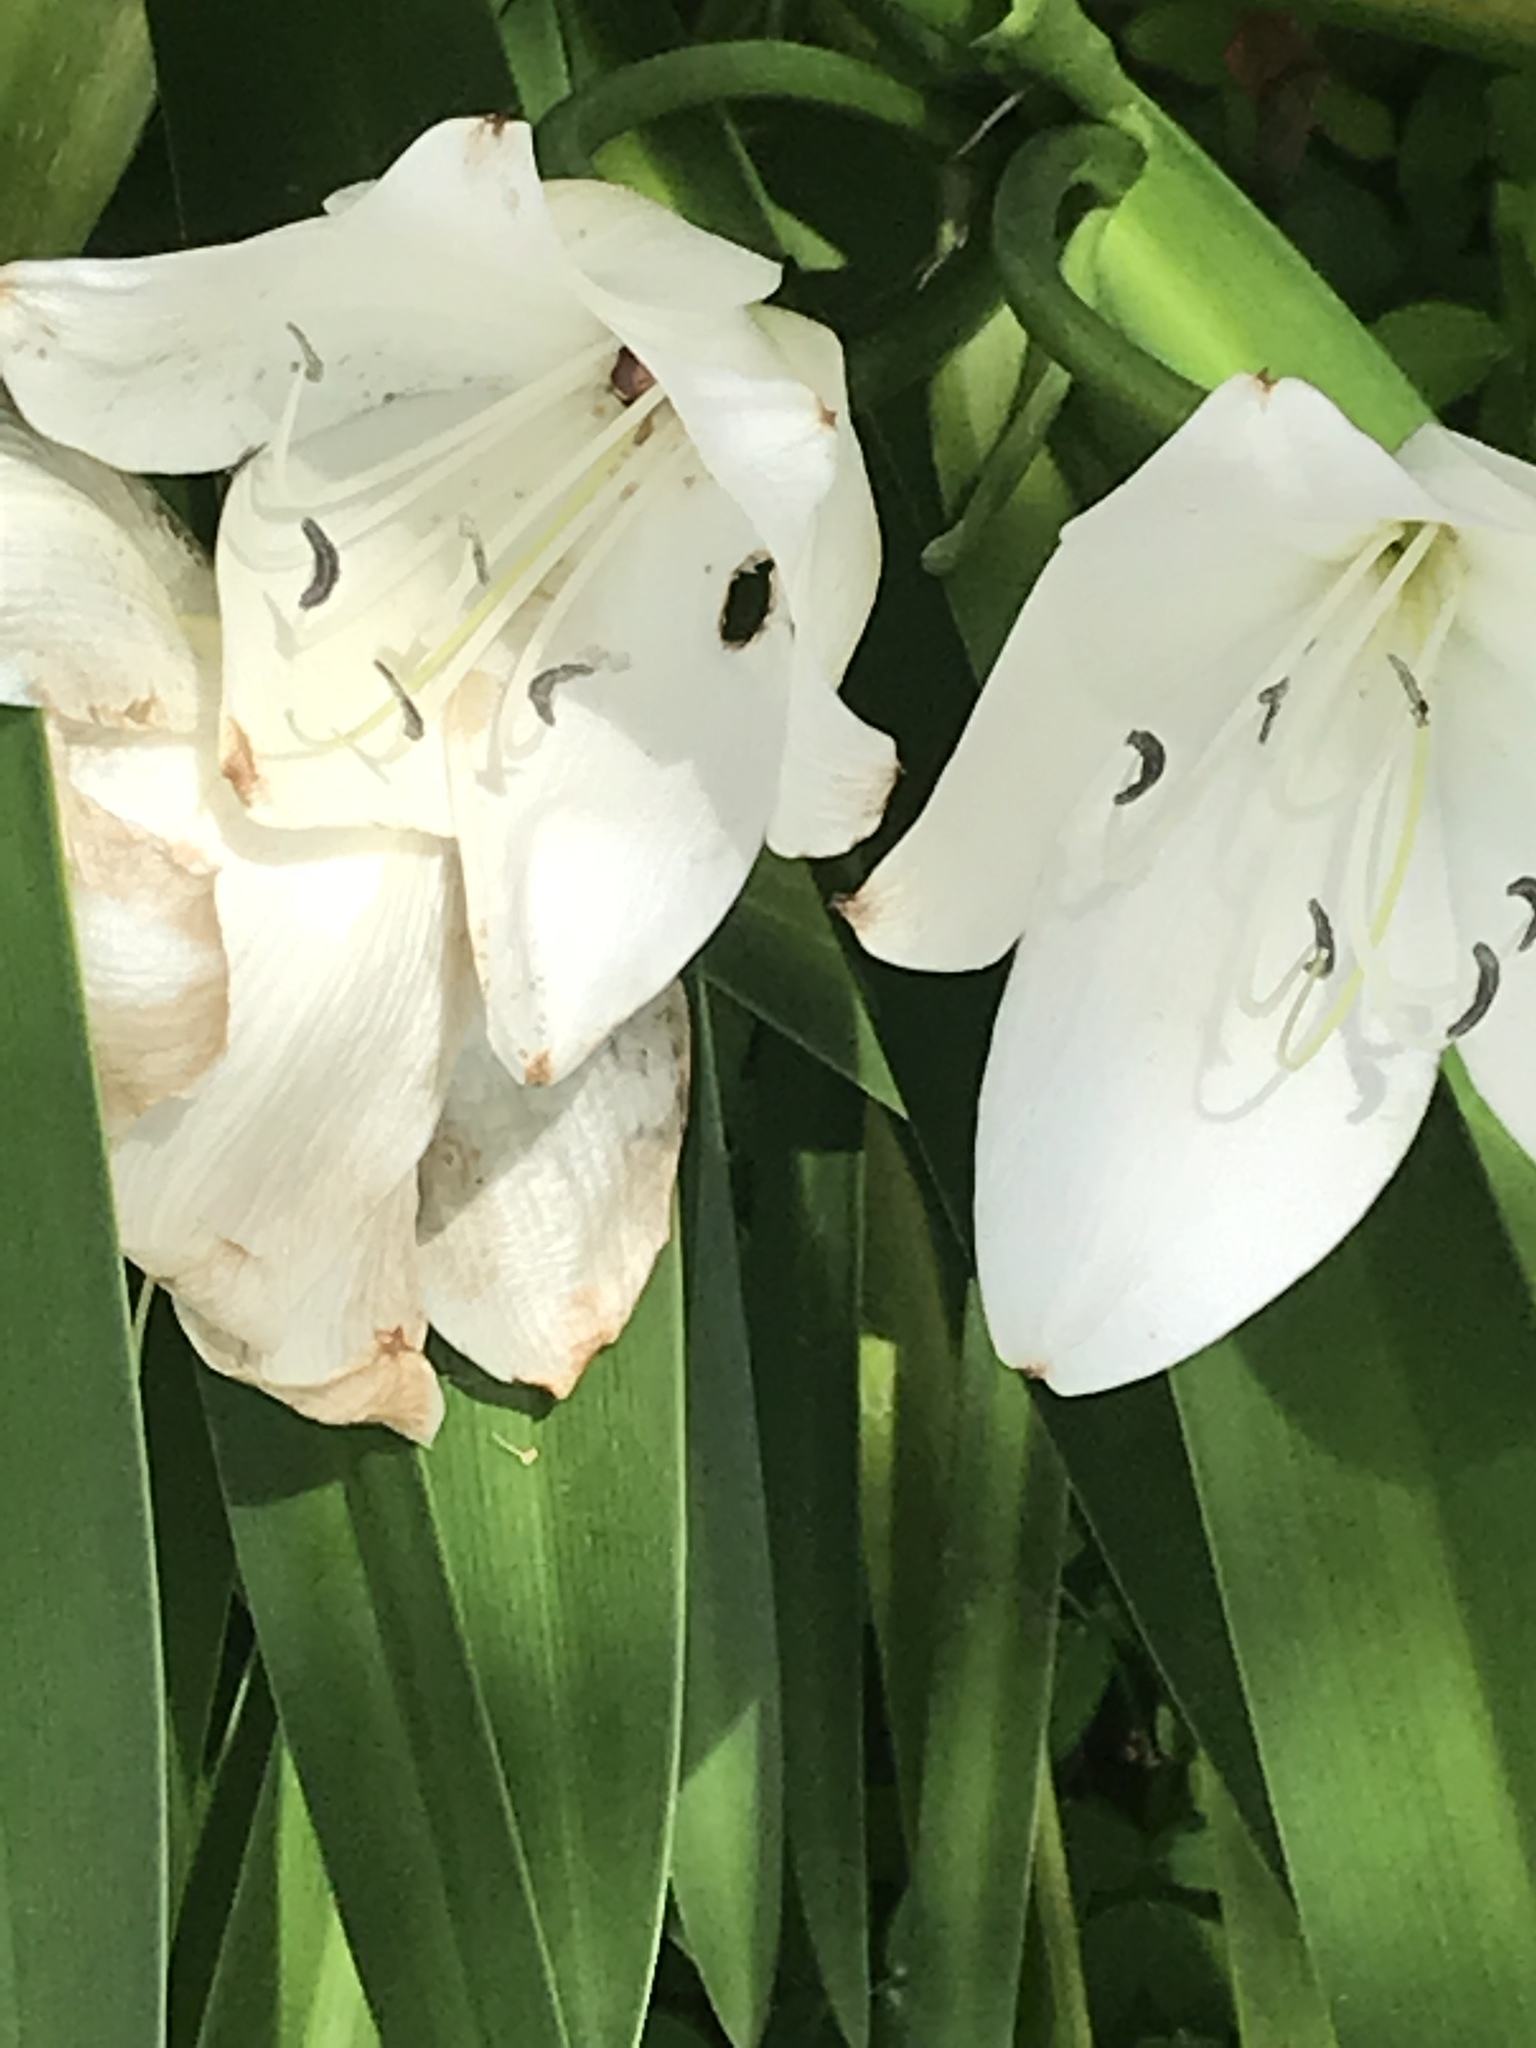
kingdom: Plantae
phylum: Tracheophyta
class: Liliopsida
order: Asparagales
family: Amaryllidaceae
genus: Zephyranthes
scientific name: Zephyranthes atamasco
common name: Atamasco lily
